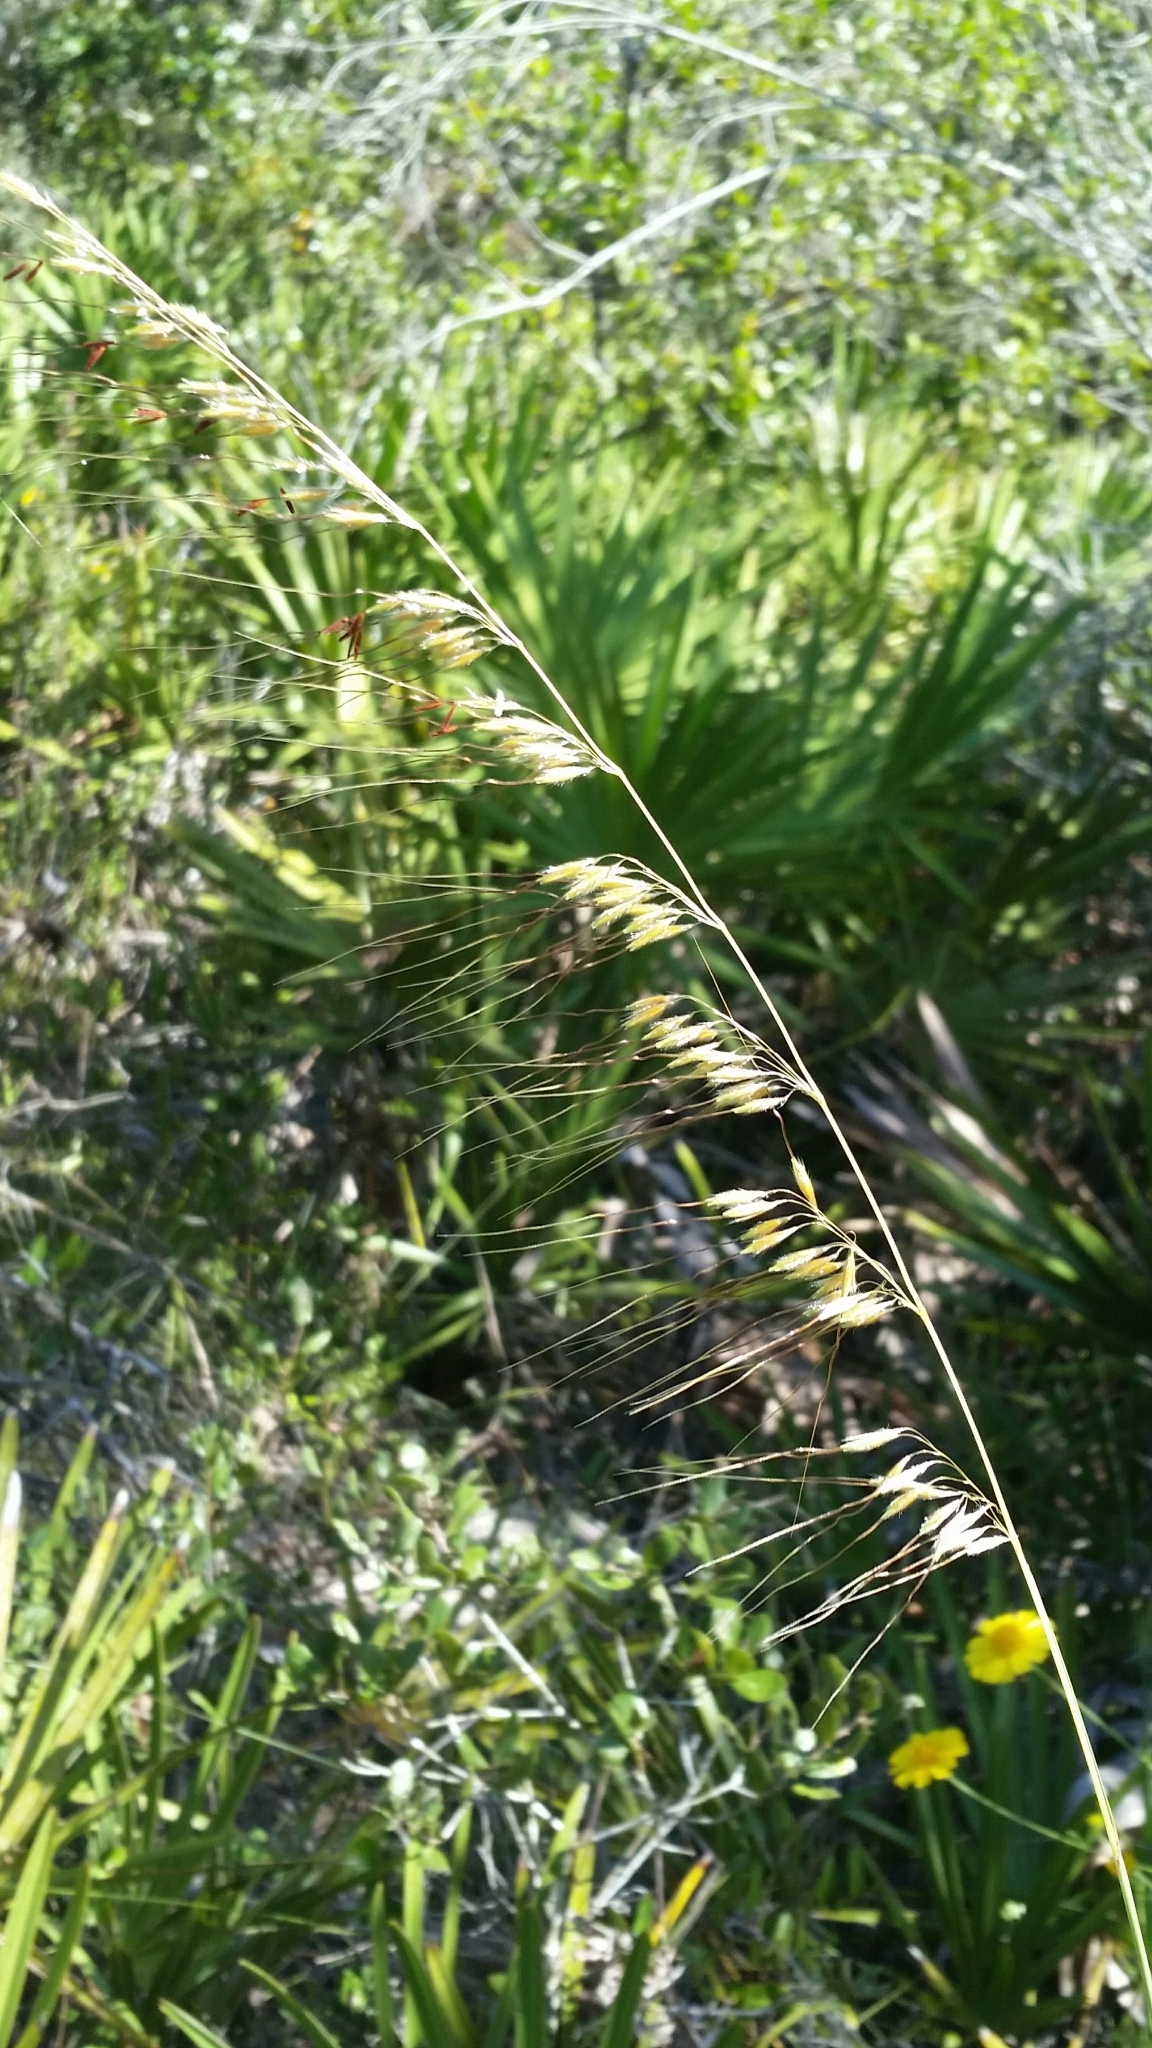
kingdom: Plantae
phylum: Tracheophyta
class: Liliopsida
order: Poales
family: Poaceae
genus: Sorghastrum
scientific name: Sorghastrum secundum
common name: Lopsided indian grass
